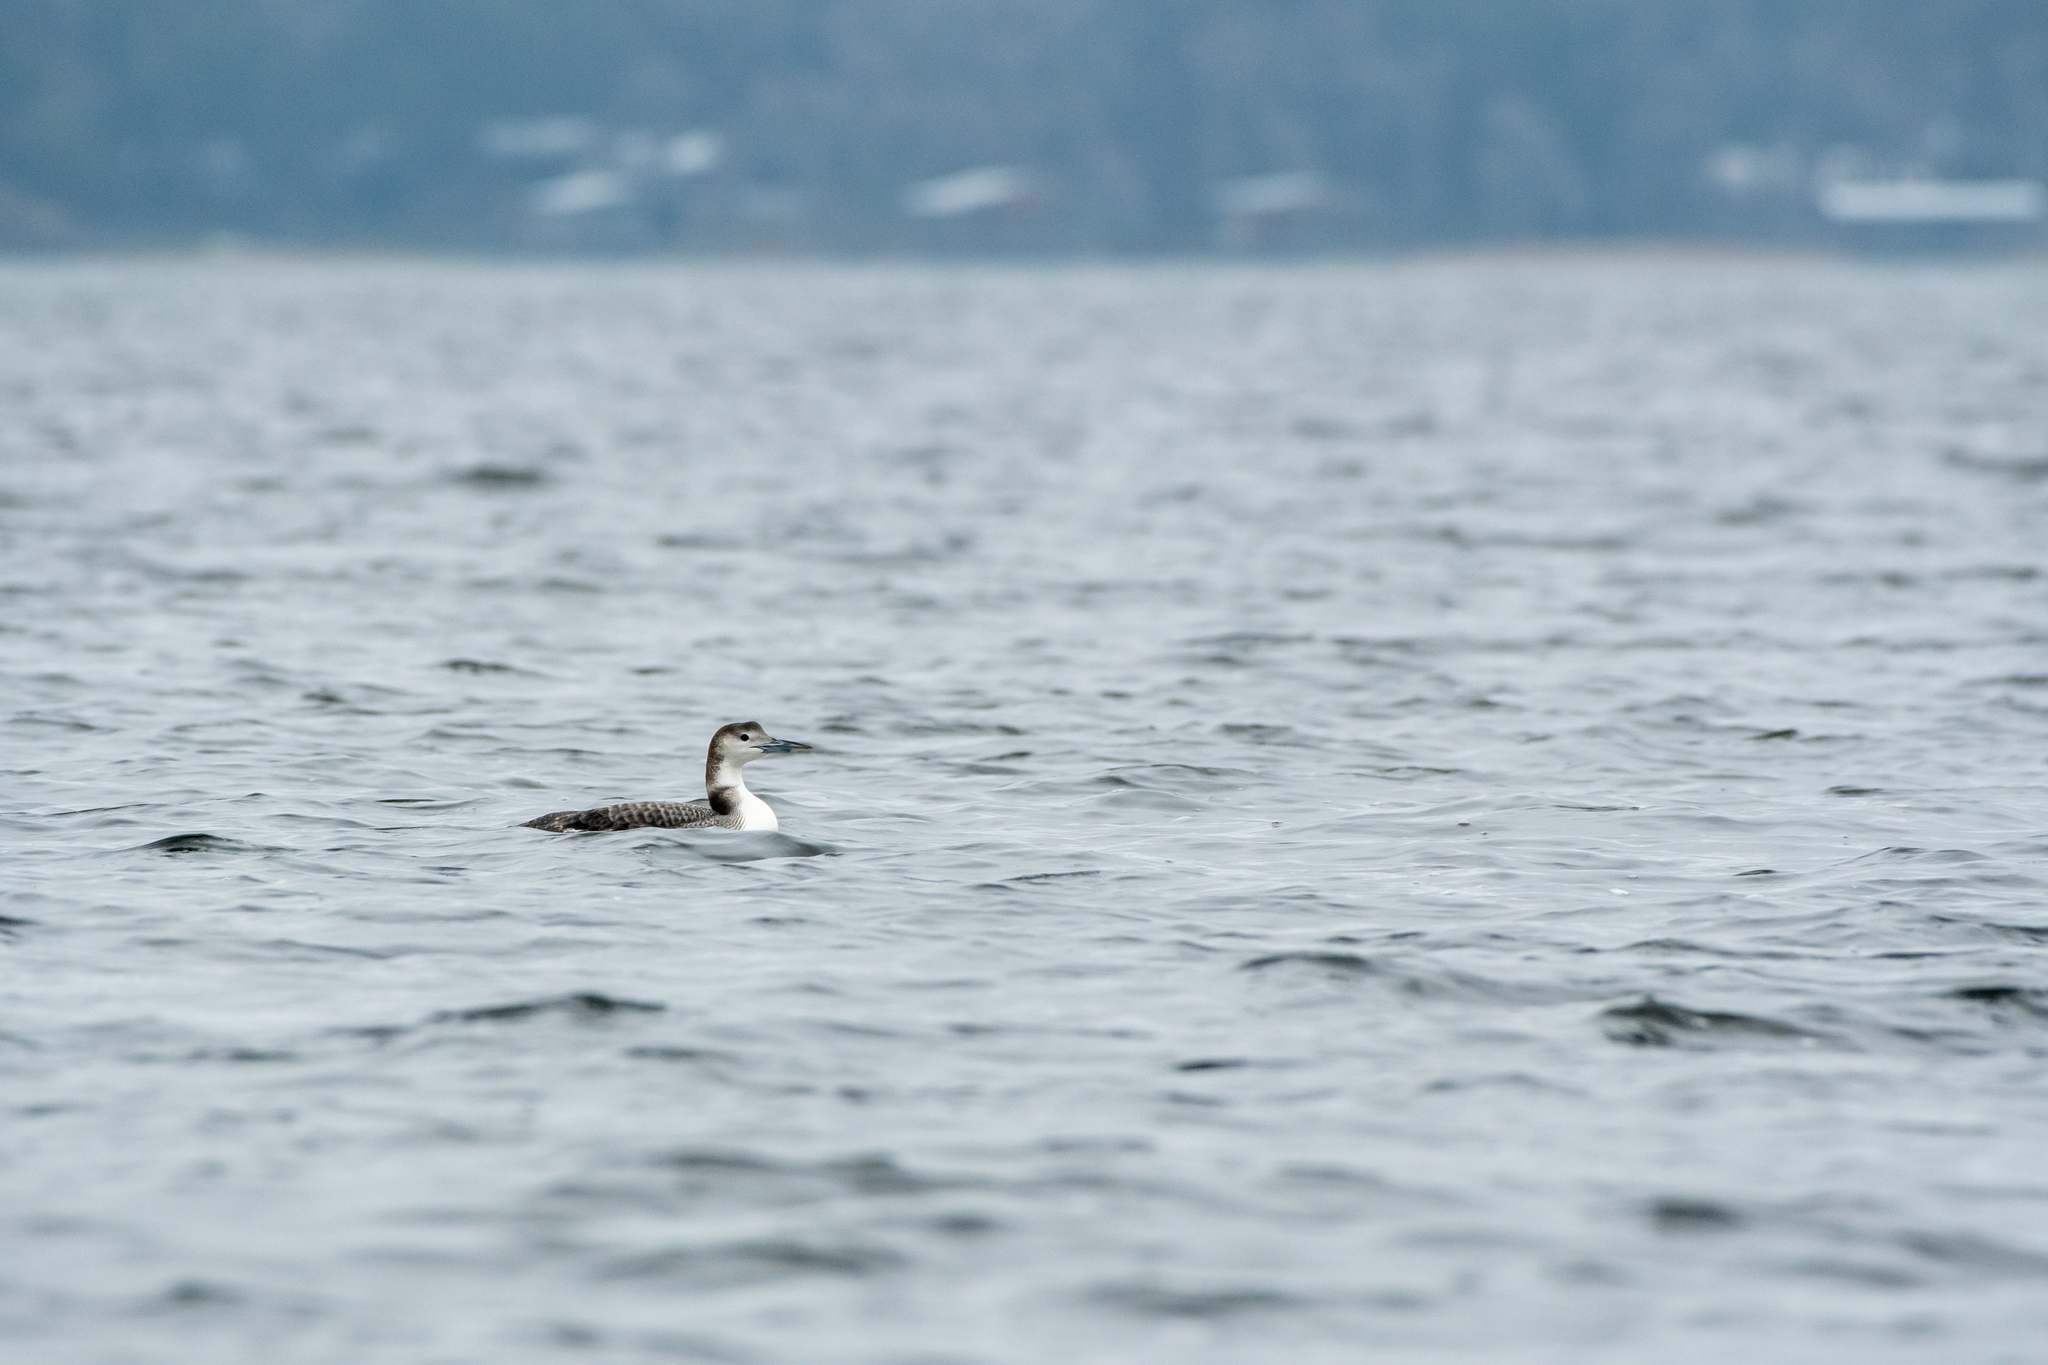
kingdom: Animalia
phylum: Chordata
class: Aves
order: Gaviiformes
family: Gaviidae
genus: Gavia
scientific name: Gavia immer
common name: Common loon
